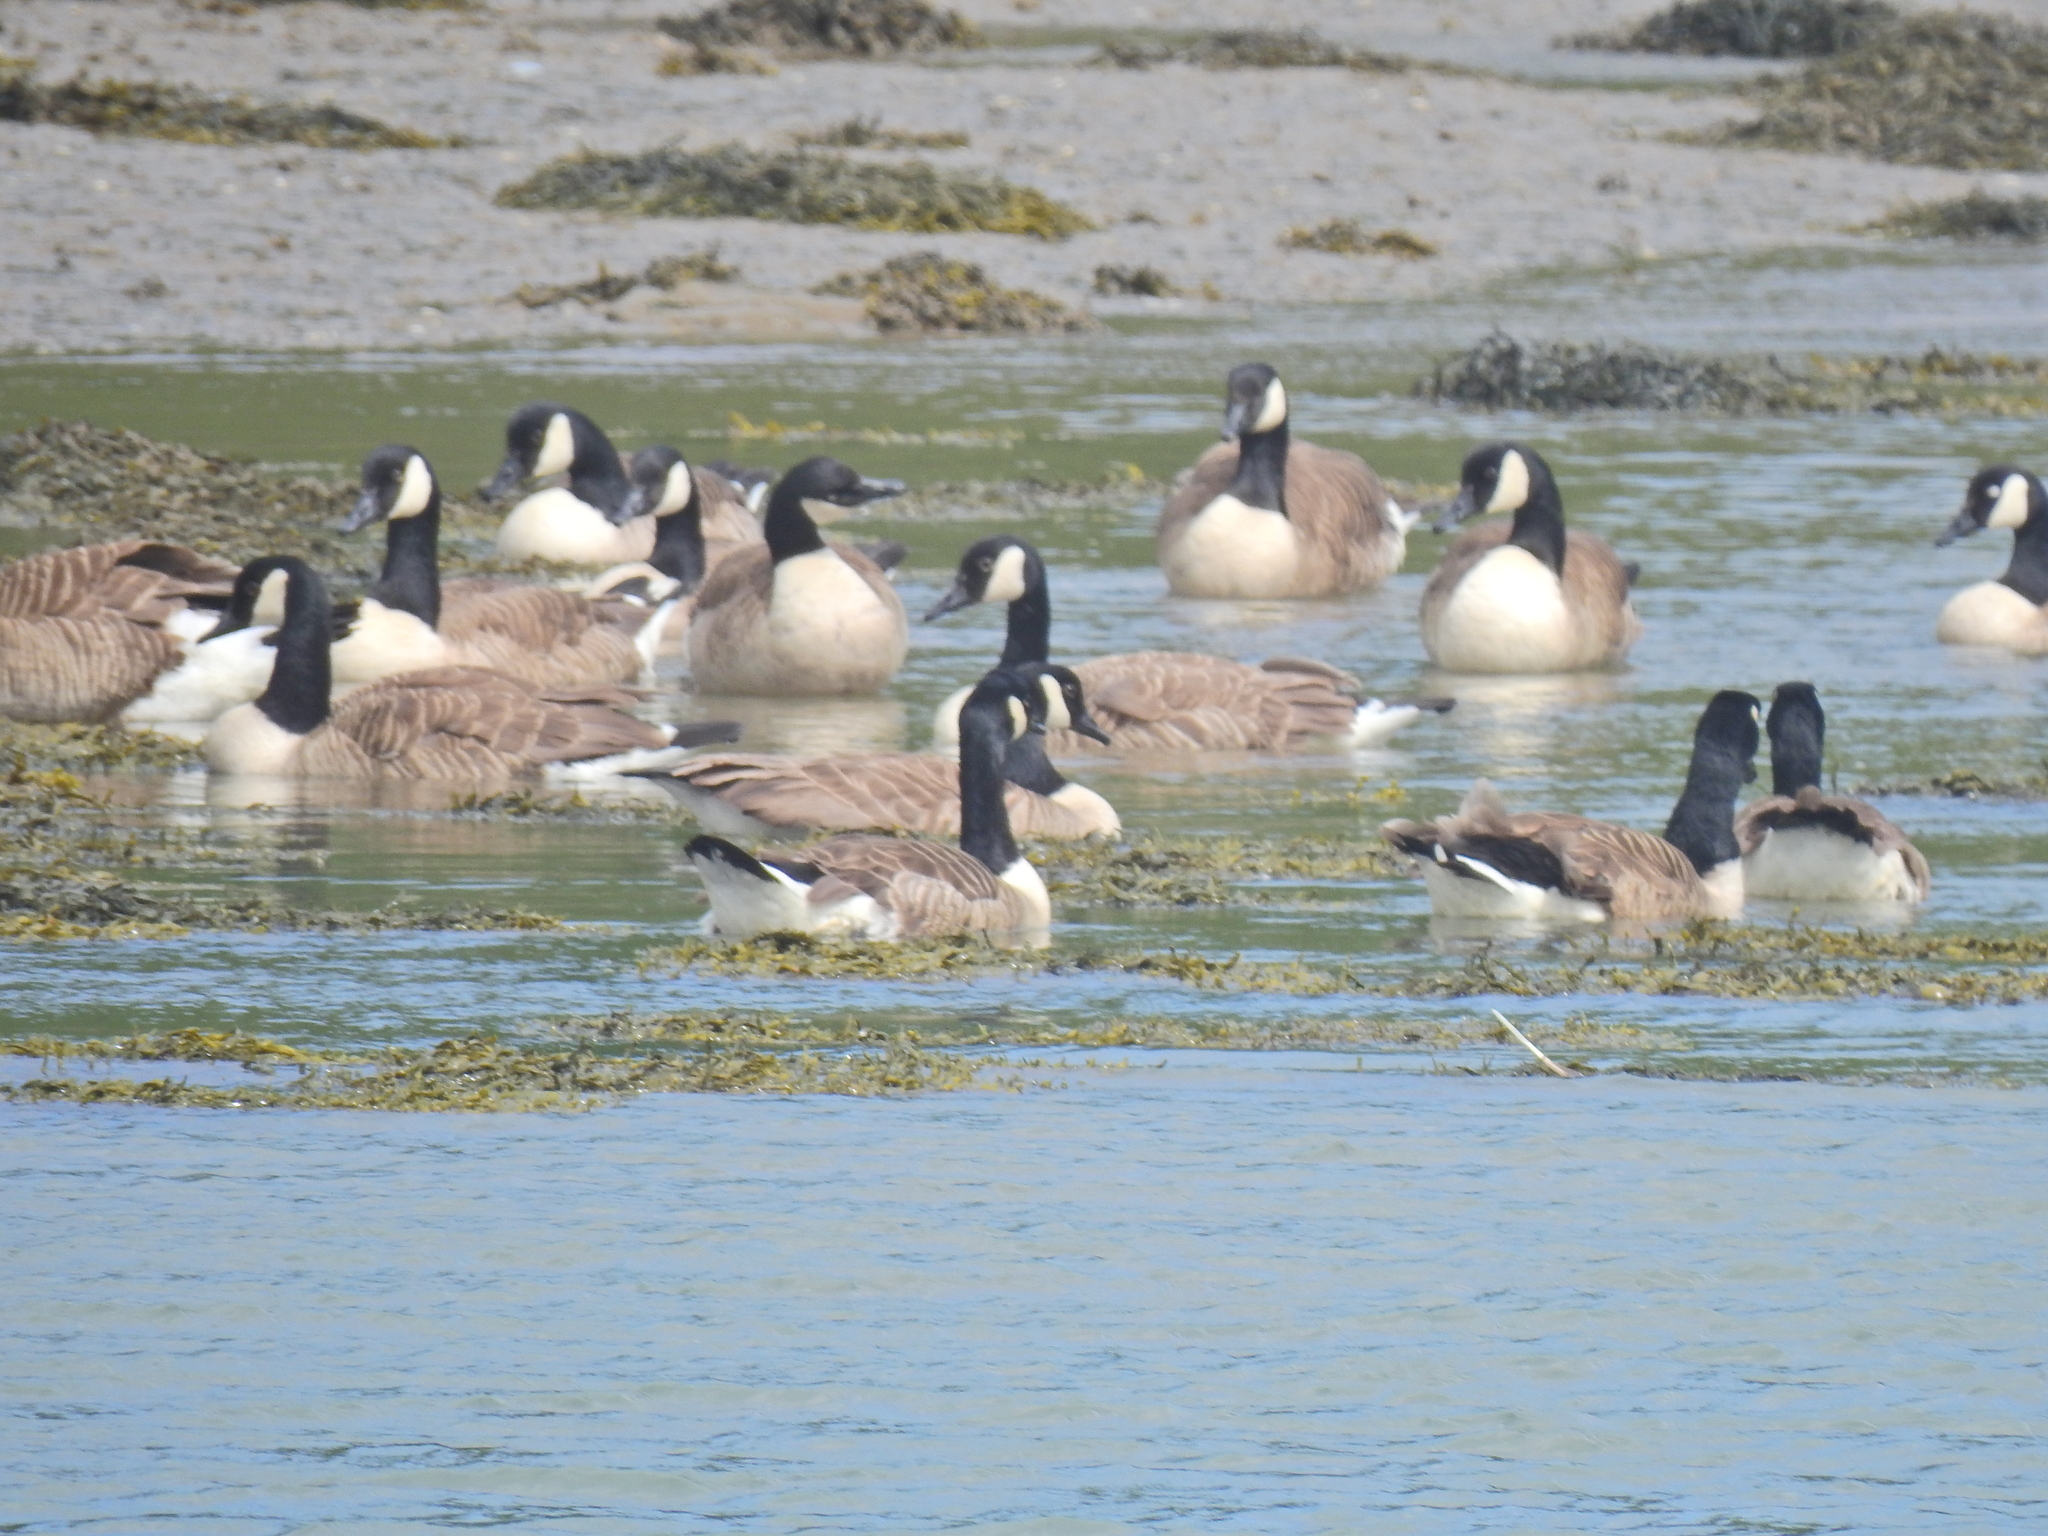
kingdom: Animalia
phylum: Chordata
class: Aves
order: Anseriformes
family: Anatidae
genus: Branta
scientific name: Branta canadensis
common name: Canada goose
